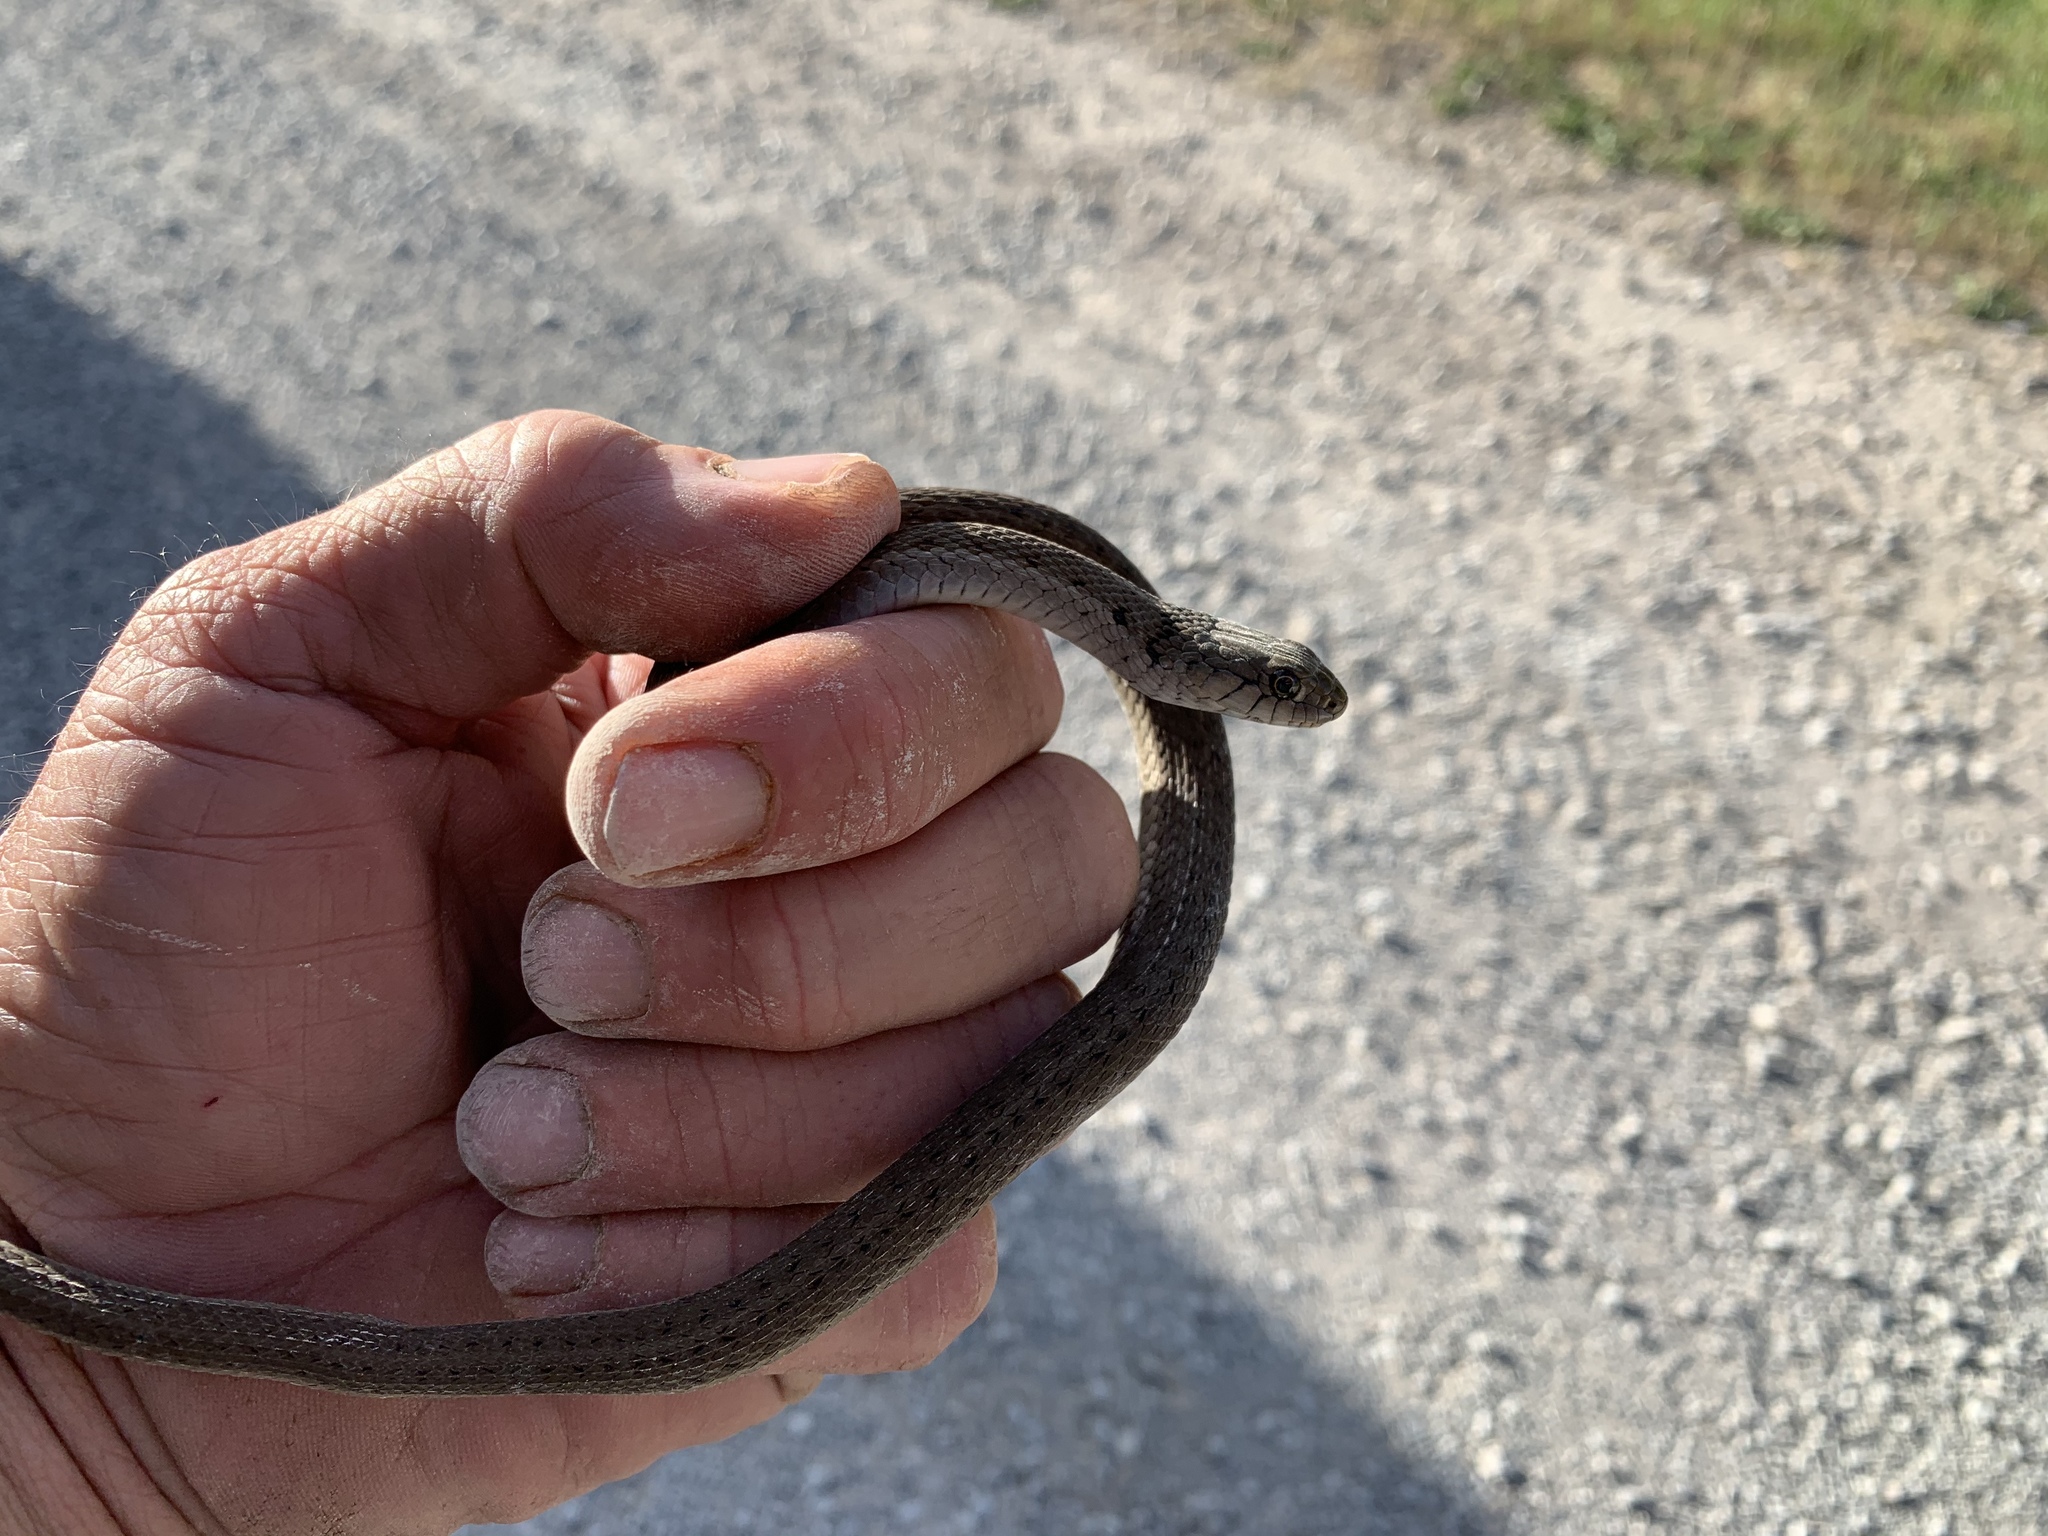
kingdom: Animalia
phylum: Chordata
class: Squamata
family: Colubridae
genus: Thamnophis
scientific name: Thamnophis elegans
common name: Western terrestrial garter snake
